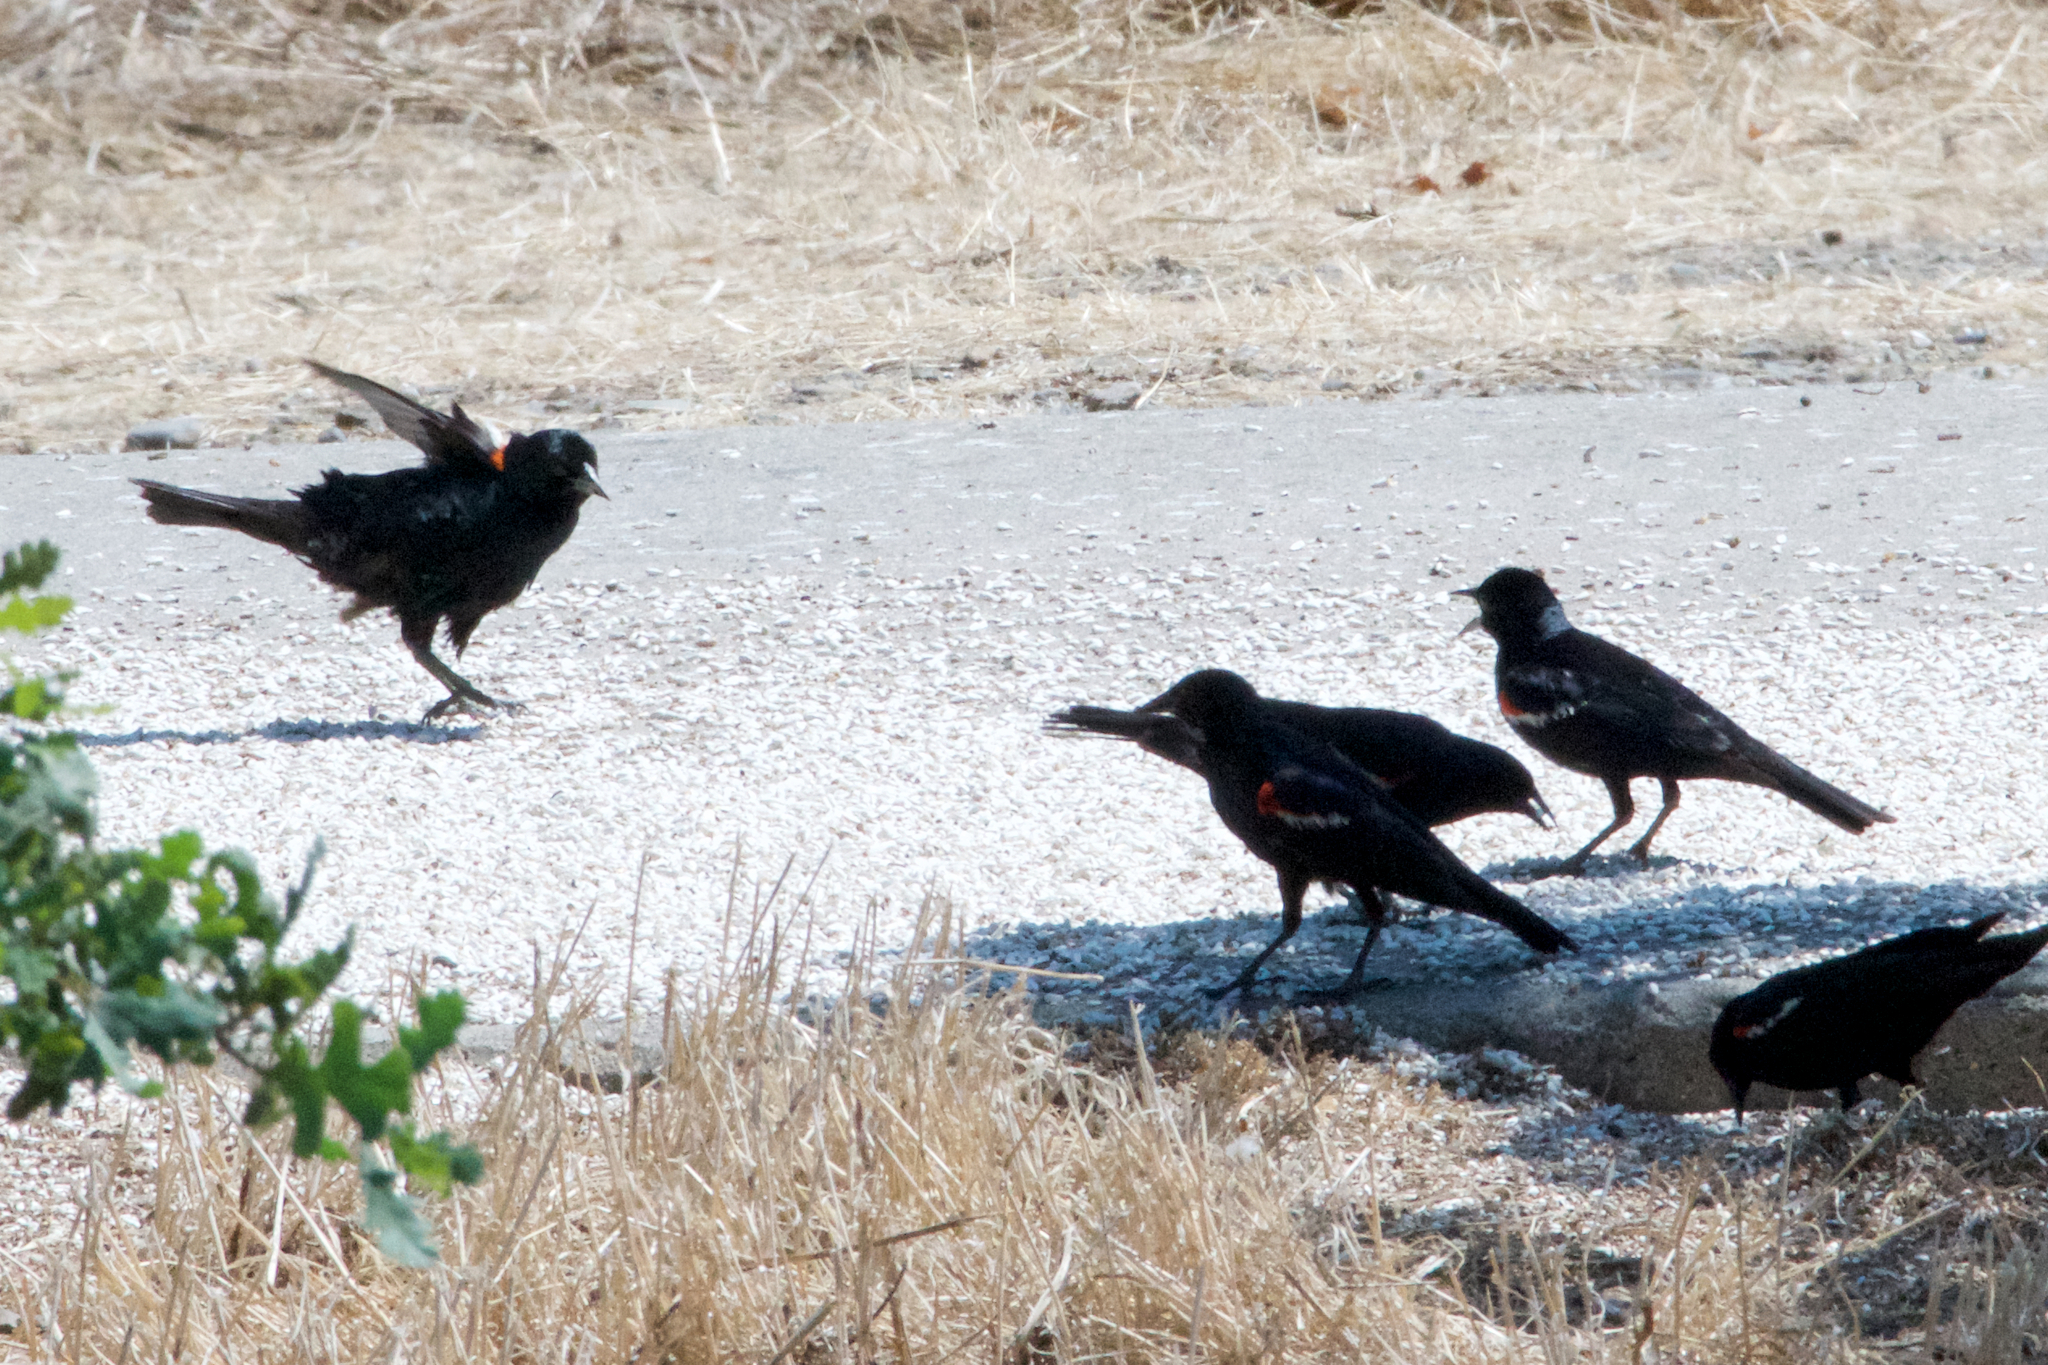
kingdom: Animalia
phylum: Chordata
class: Aves
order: Passeriformes
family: Icteridae
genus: Agelaius
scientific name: Agelaius tricolor
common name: Tricolored blackbird
